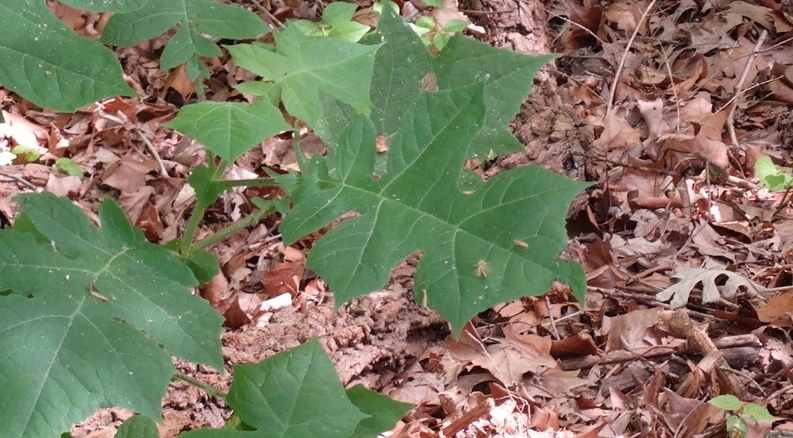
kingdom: Plantae
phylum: Tracheophyta
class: Magnoliopsida
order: Asterales
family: Asteraceae
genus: Polymnia
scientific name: Polymnia canadensis
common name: Pale-flowered leafcup
